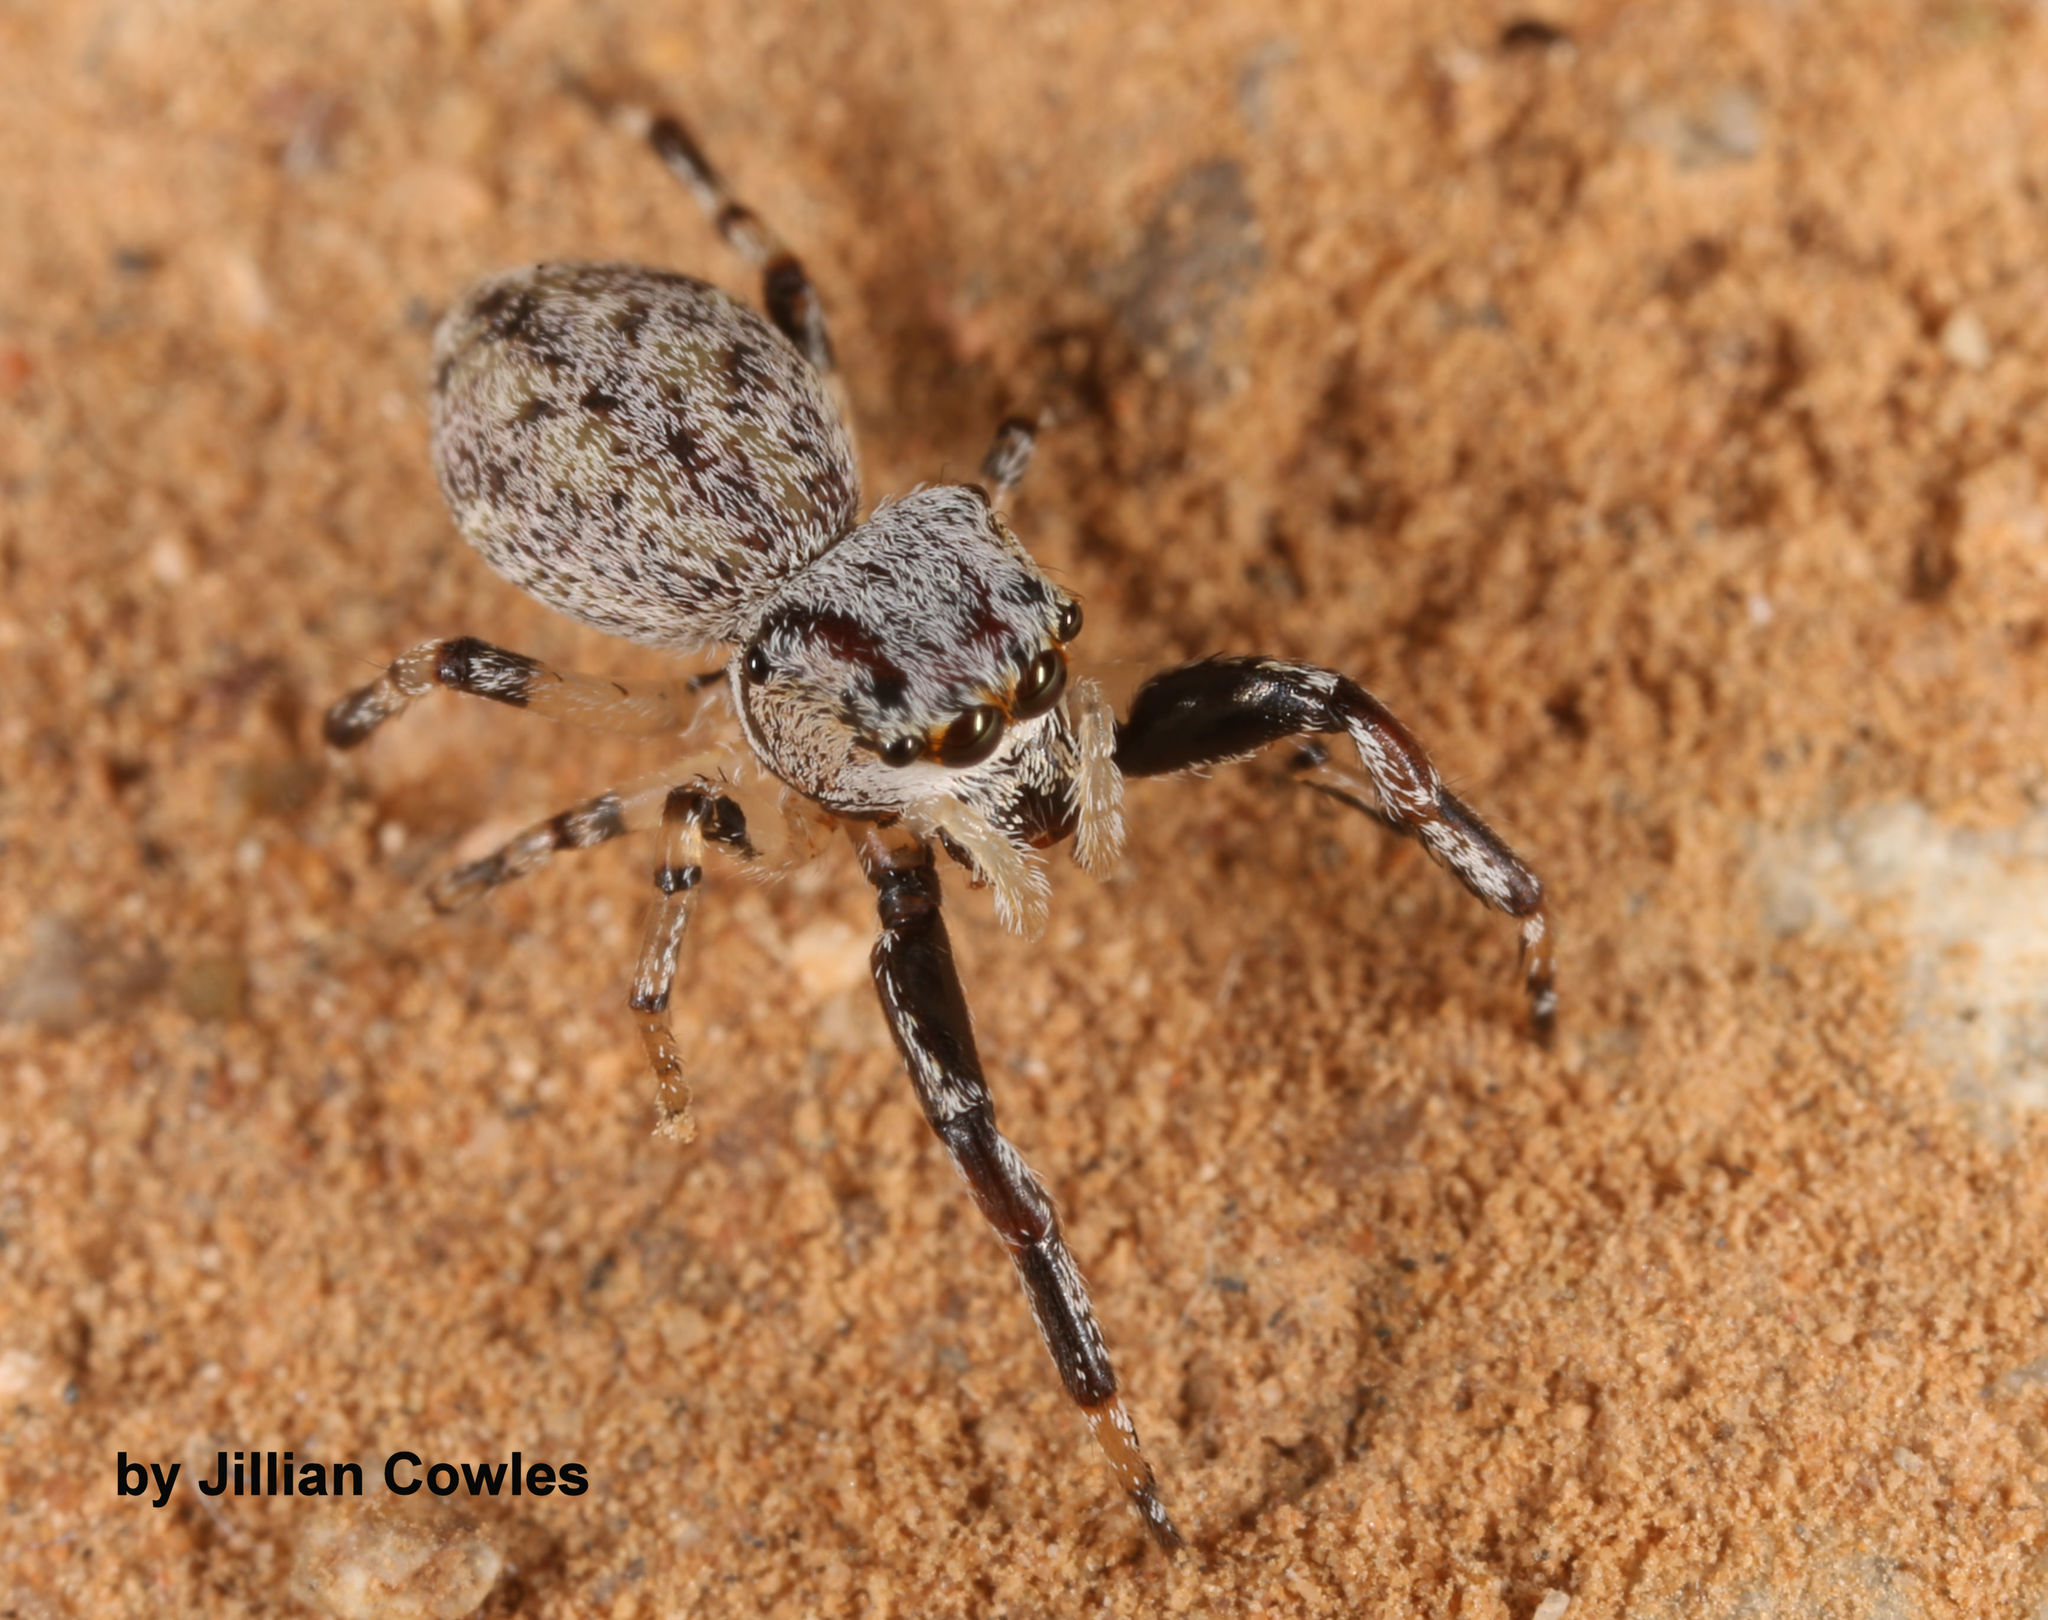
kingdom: Animalia
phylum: Arthropoda
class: Arachnida
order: Araneae
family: Salticidae
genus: Zygoballus
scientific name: Zygoballus rufipes
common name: Jumping spiders
